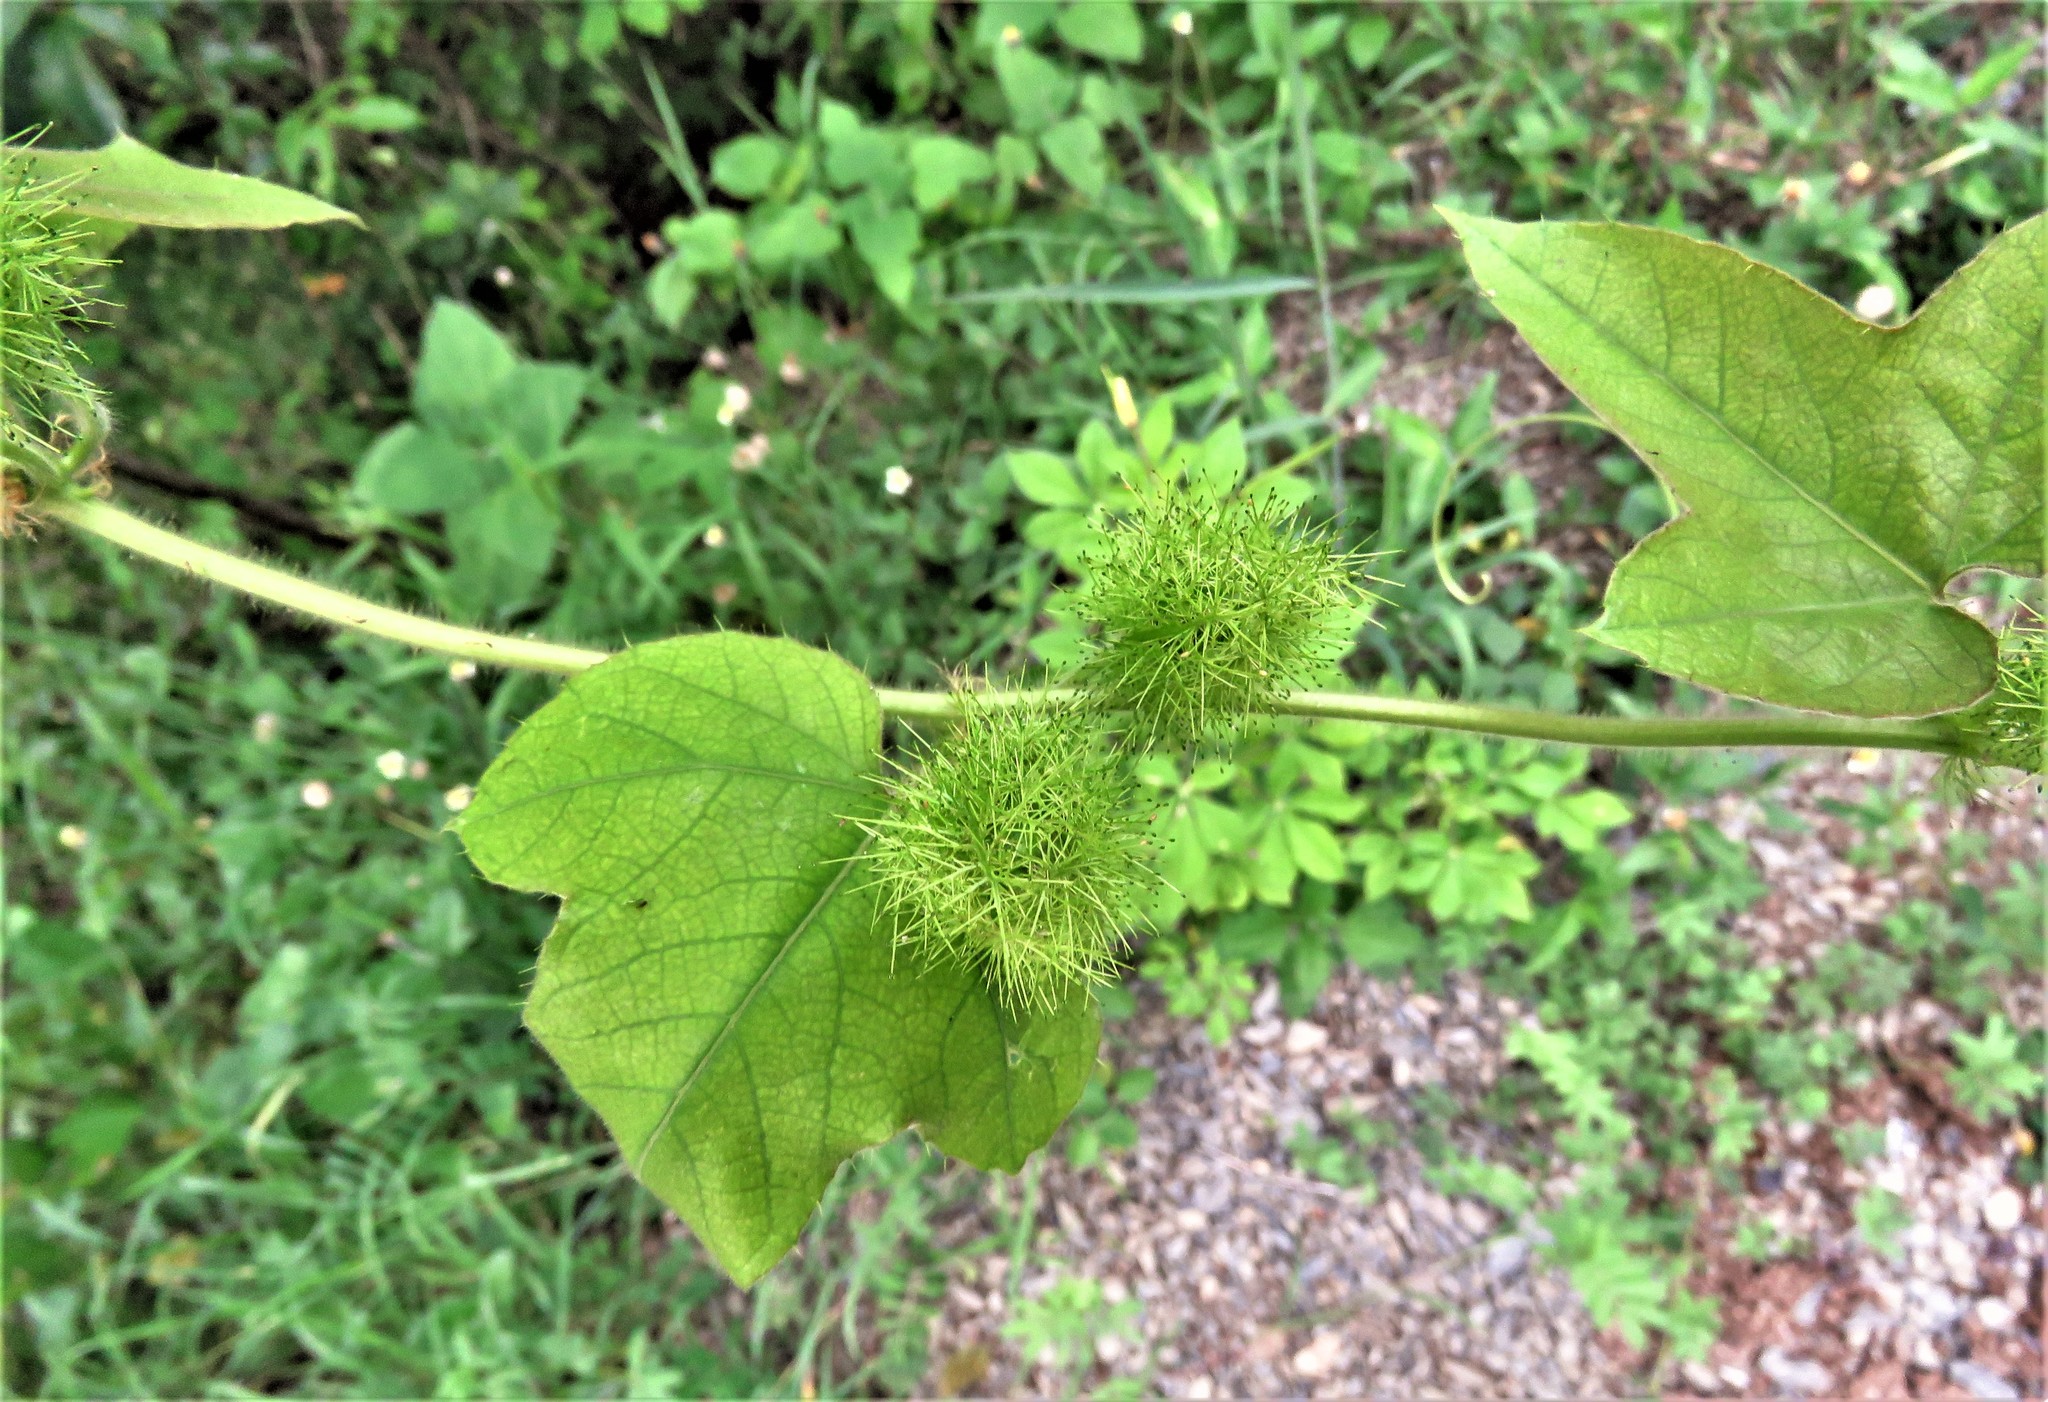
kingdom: Plantae
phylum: Tracheophyta
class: Magnoliopsida
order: Malpighiales
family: Passifloraceae
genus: Passiflora
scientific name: Passiflora
